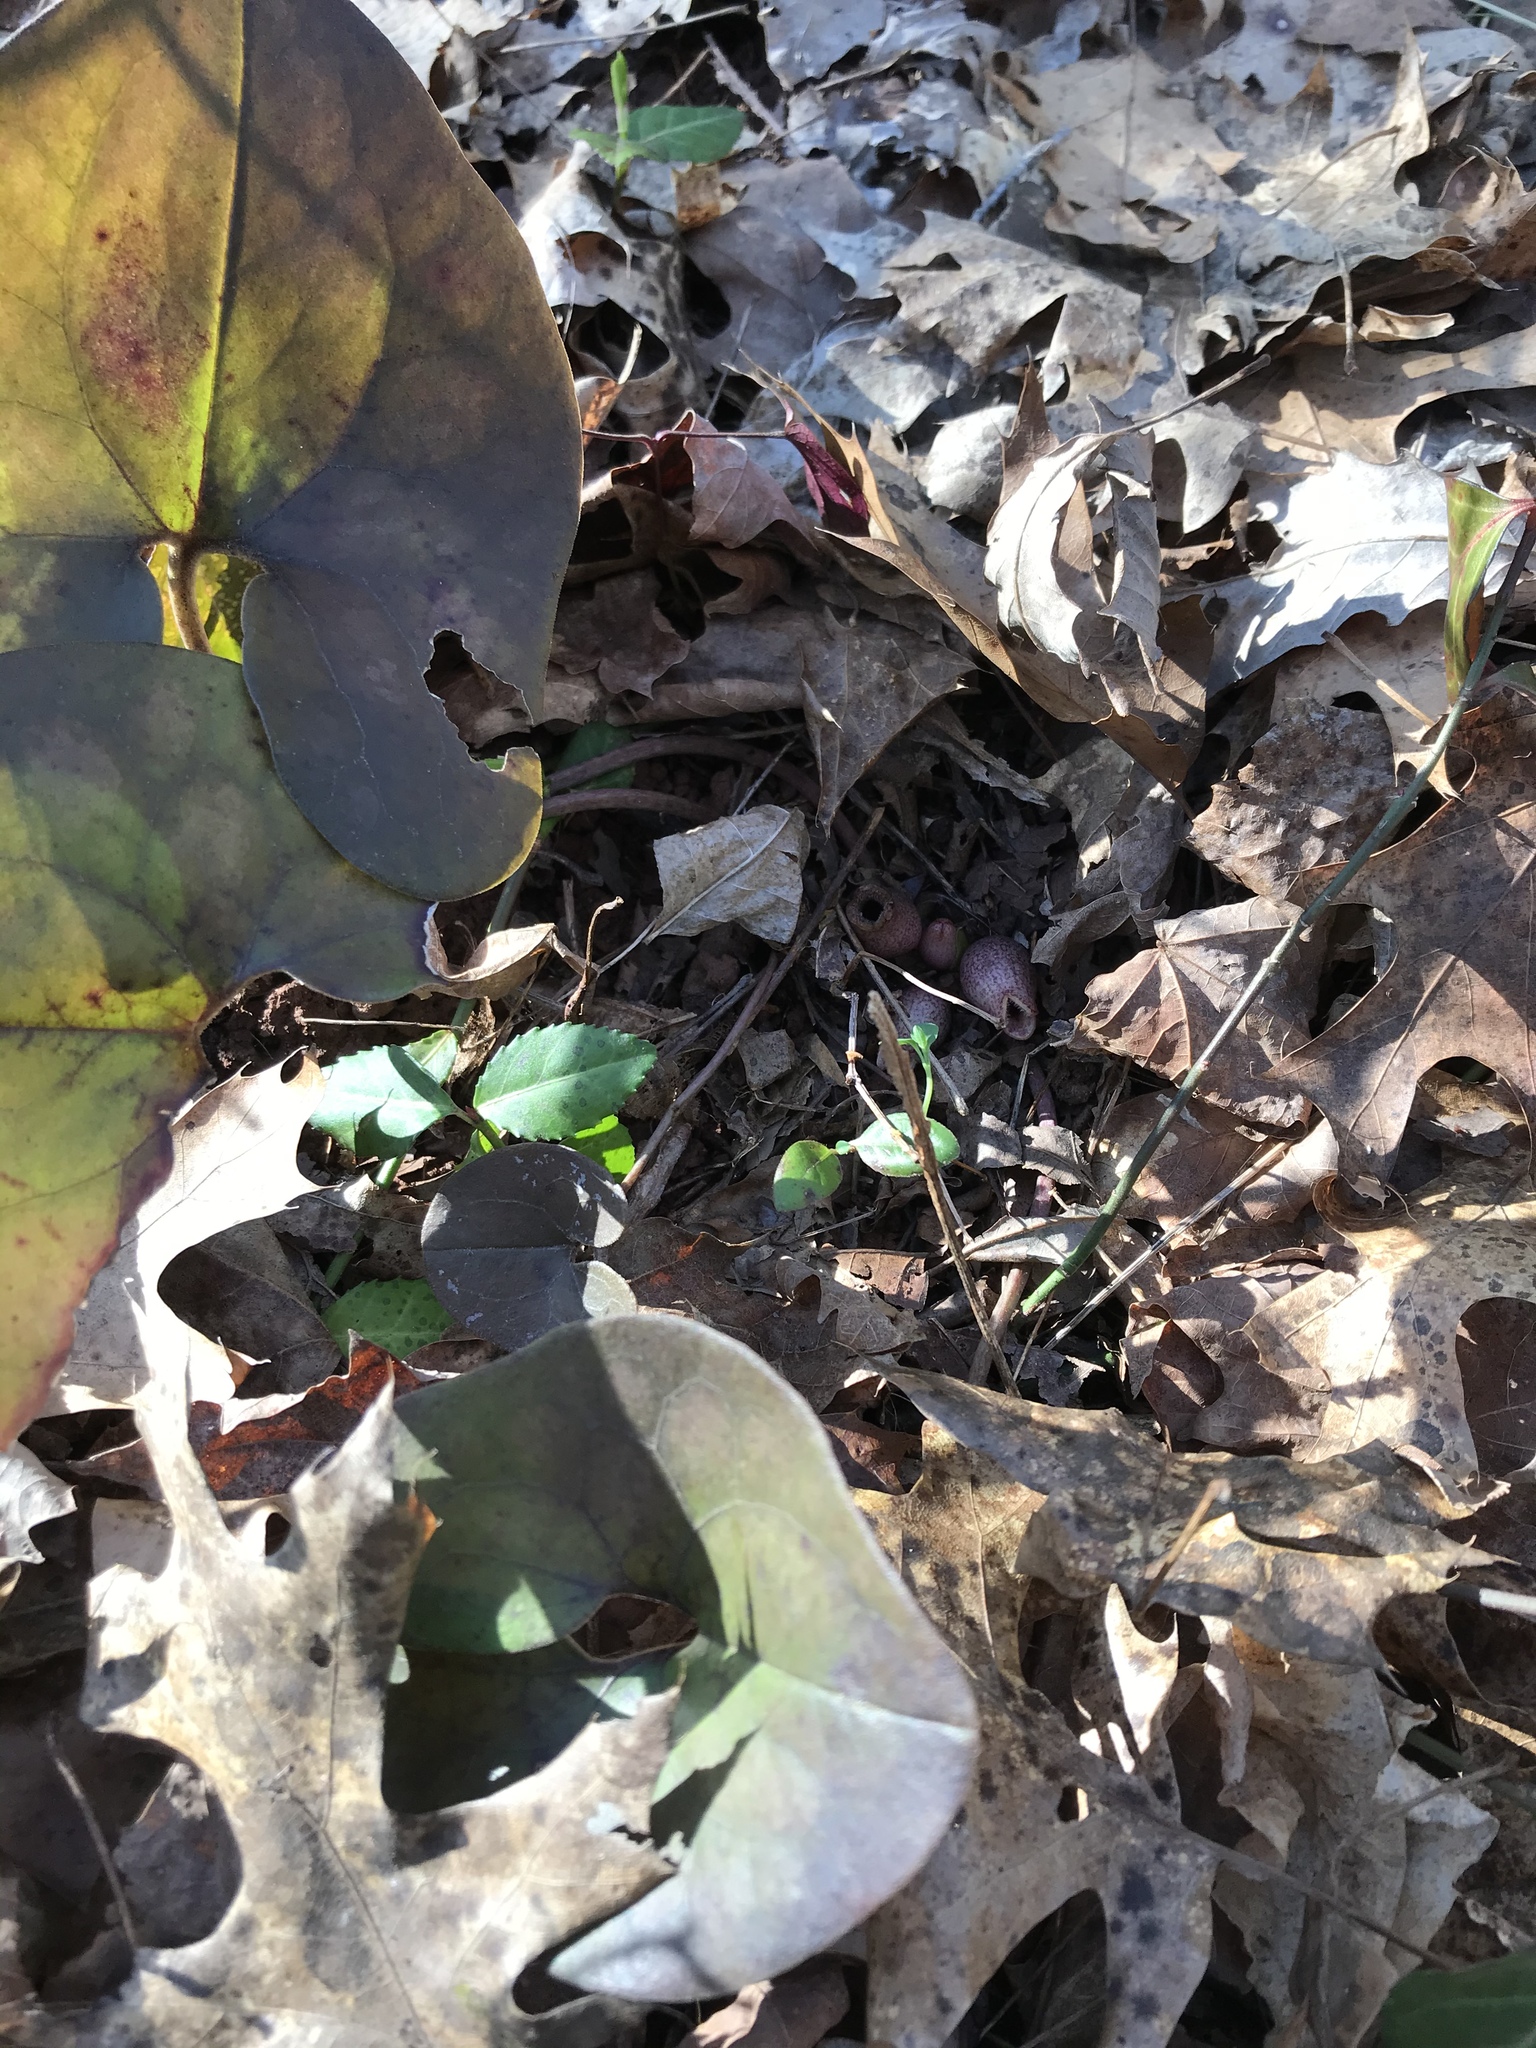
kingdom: Plantae
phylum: Tracheophyta
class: Magnoliopsida
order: Piperales
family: Aristolochiaceae
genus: Hexastylis
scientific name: Hexastylis arifolia
